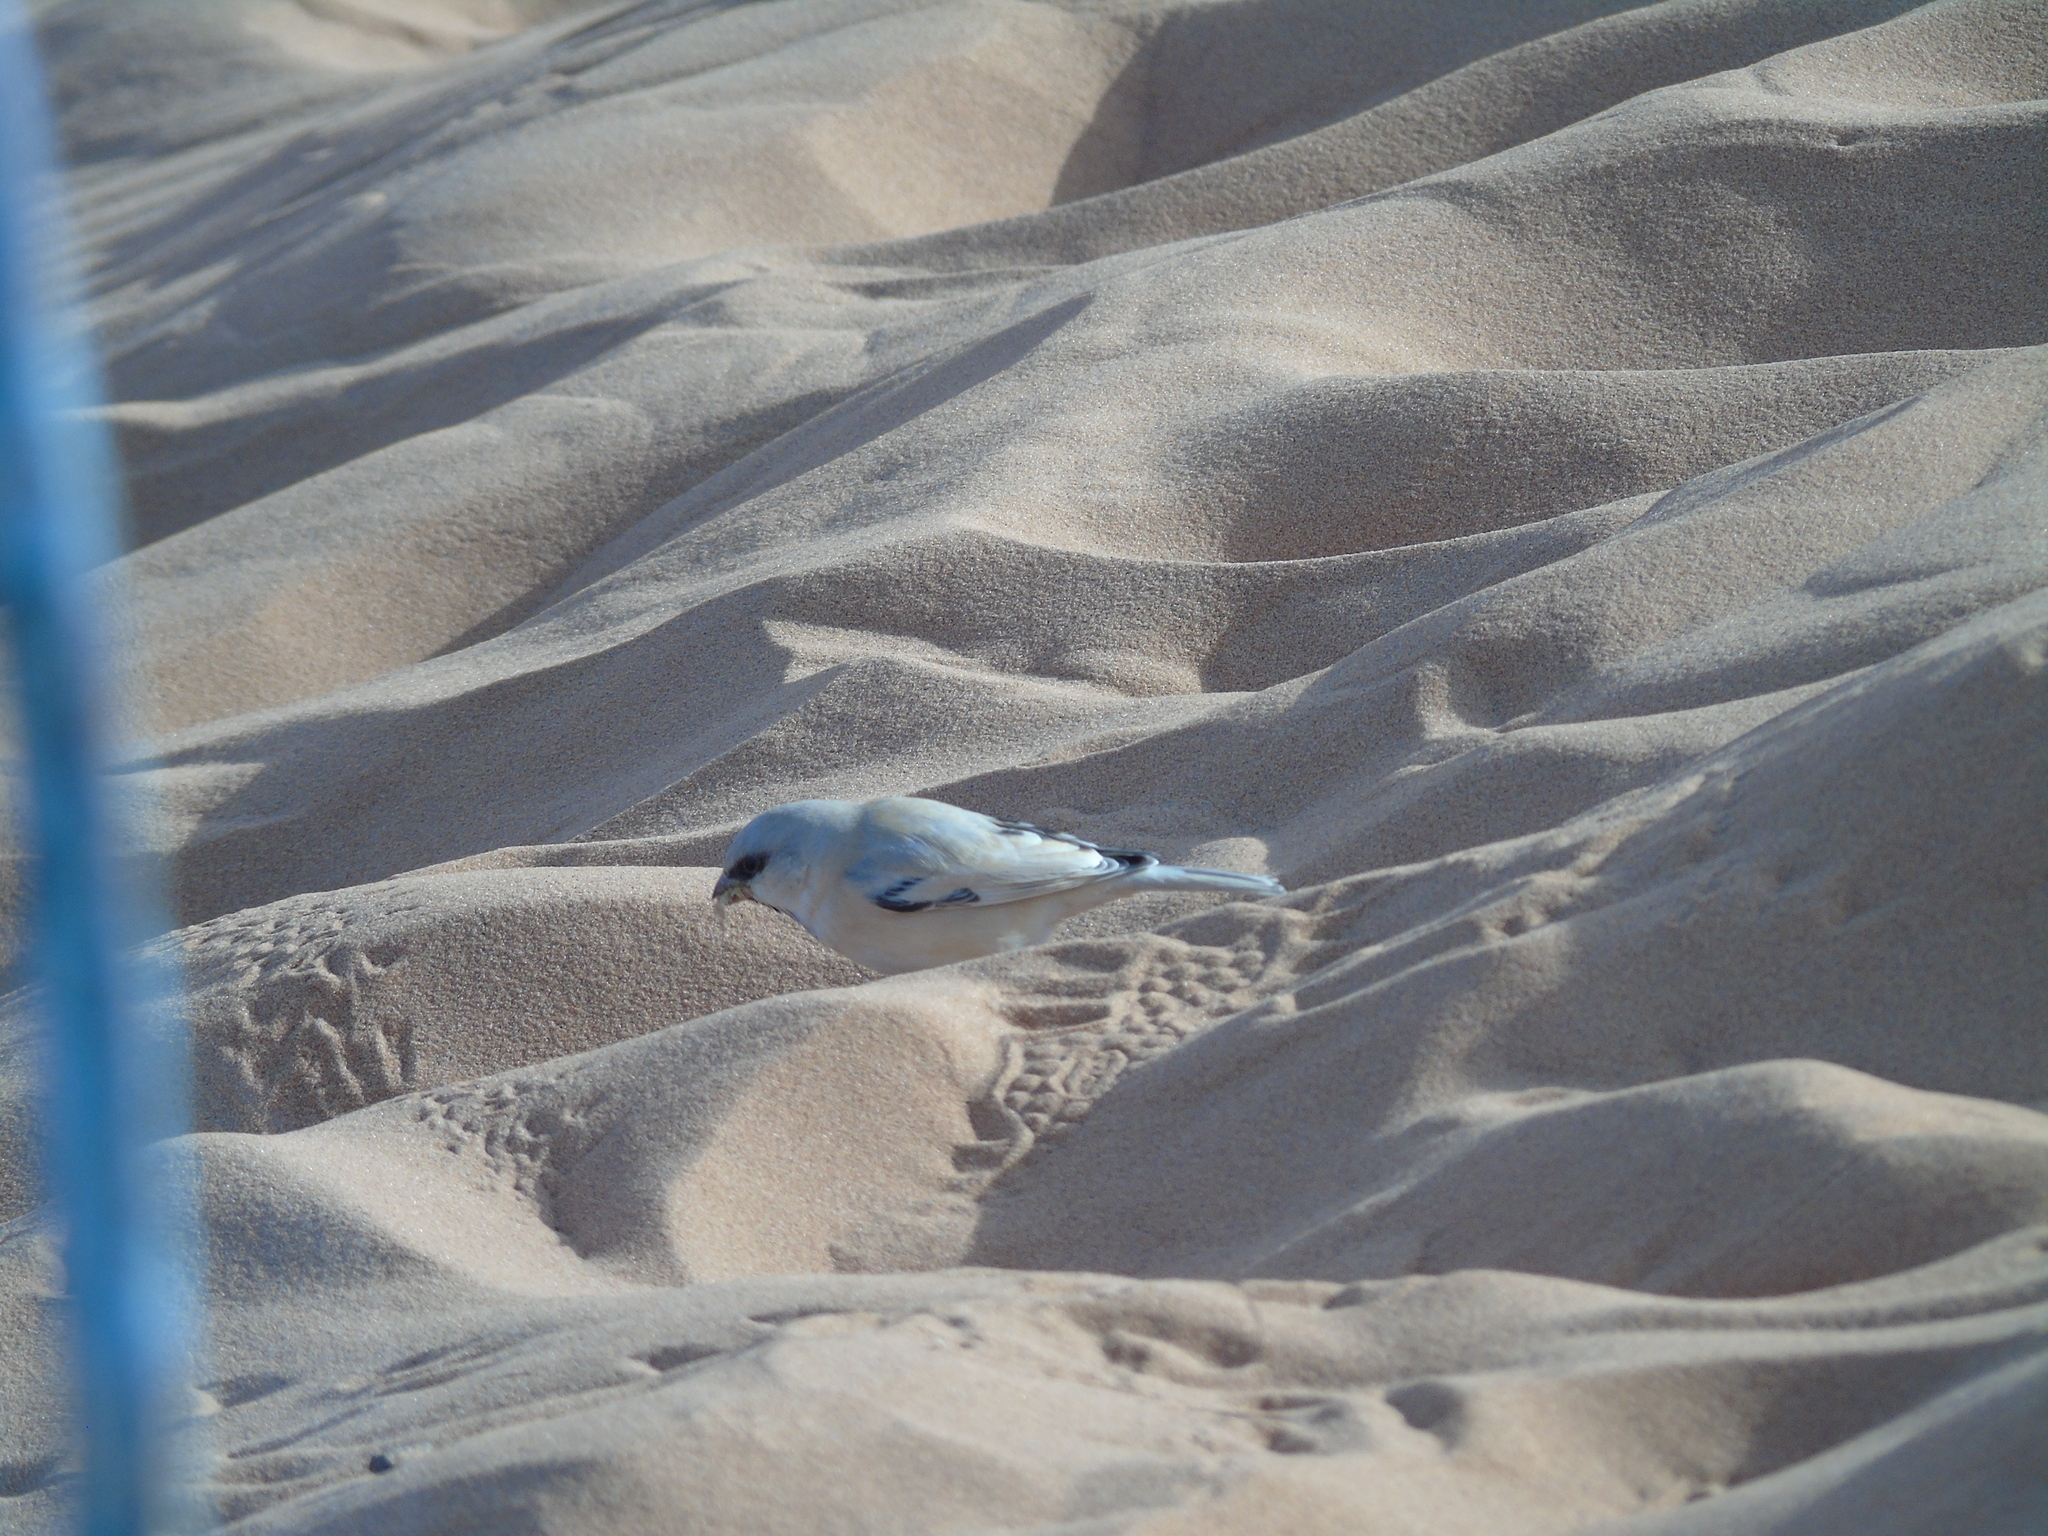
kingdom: Animalia
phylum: Chordata
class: Aves
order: Passeriformes
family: Passeridae
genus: Passer
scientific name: Passer simplex
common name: Desert sparrow
